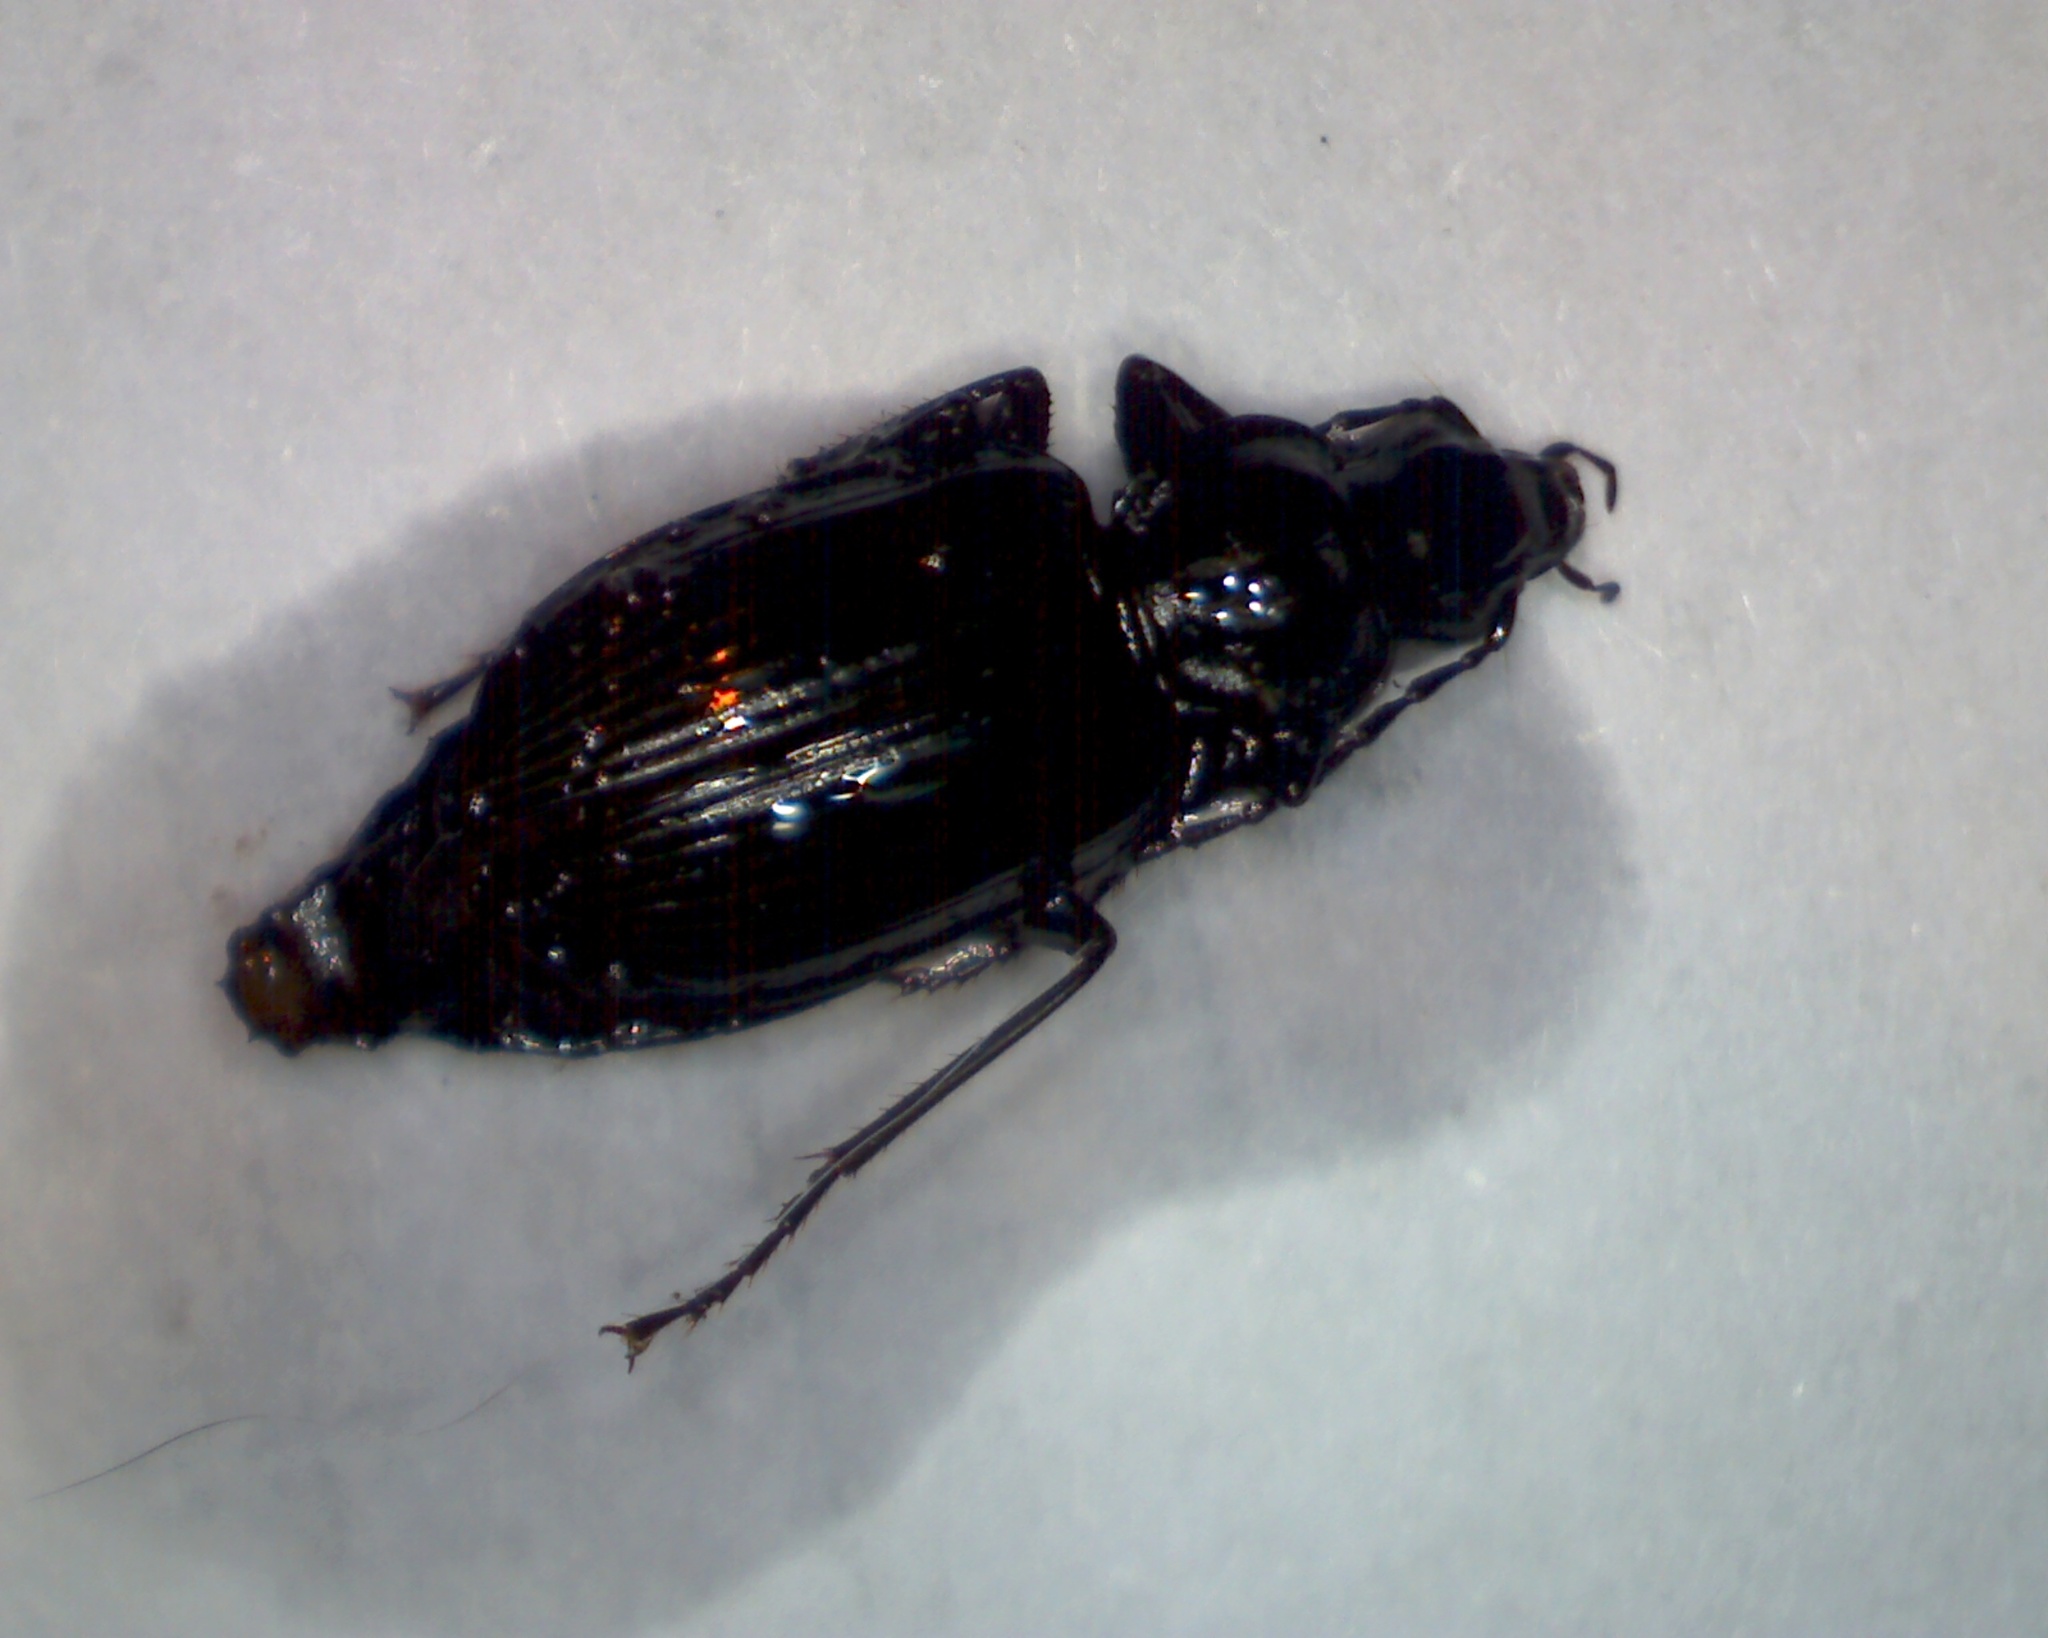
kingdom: Animalia
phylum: Arthropoda
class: Insecta
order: Coleoptera
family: Carabidae
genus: Platynus
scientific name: Platynus assimilis
